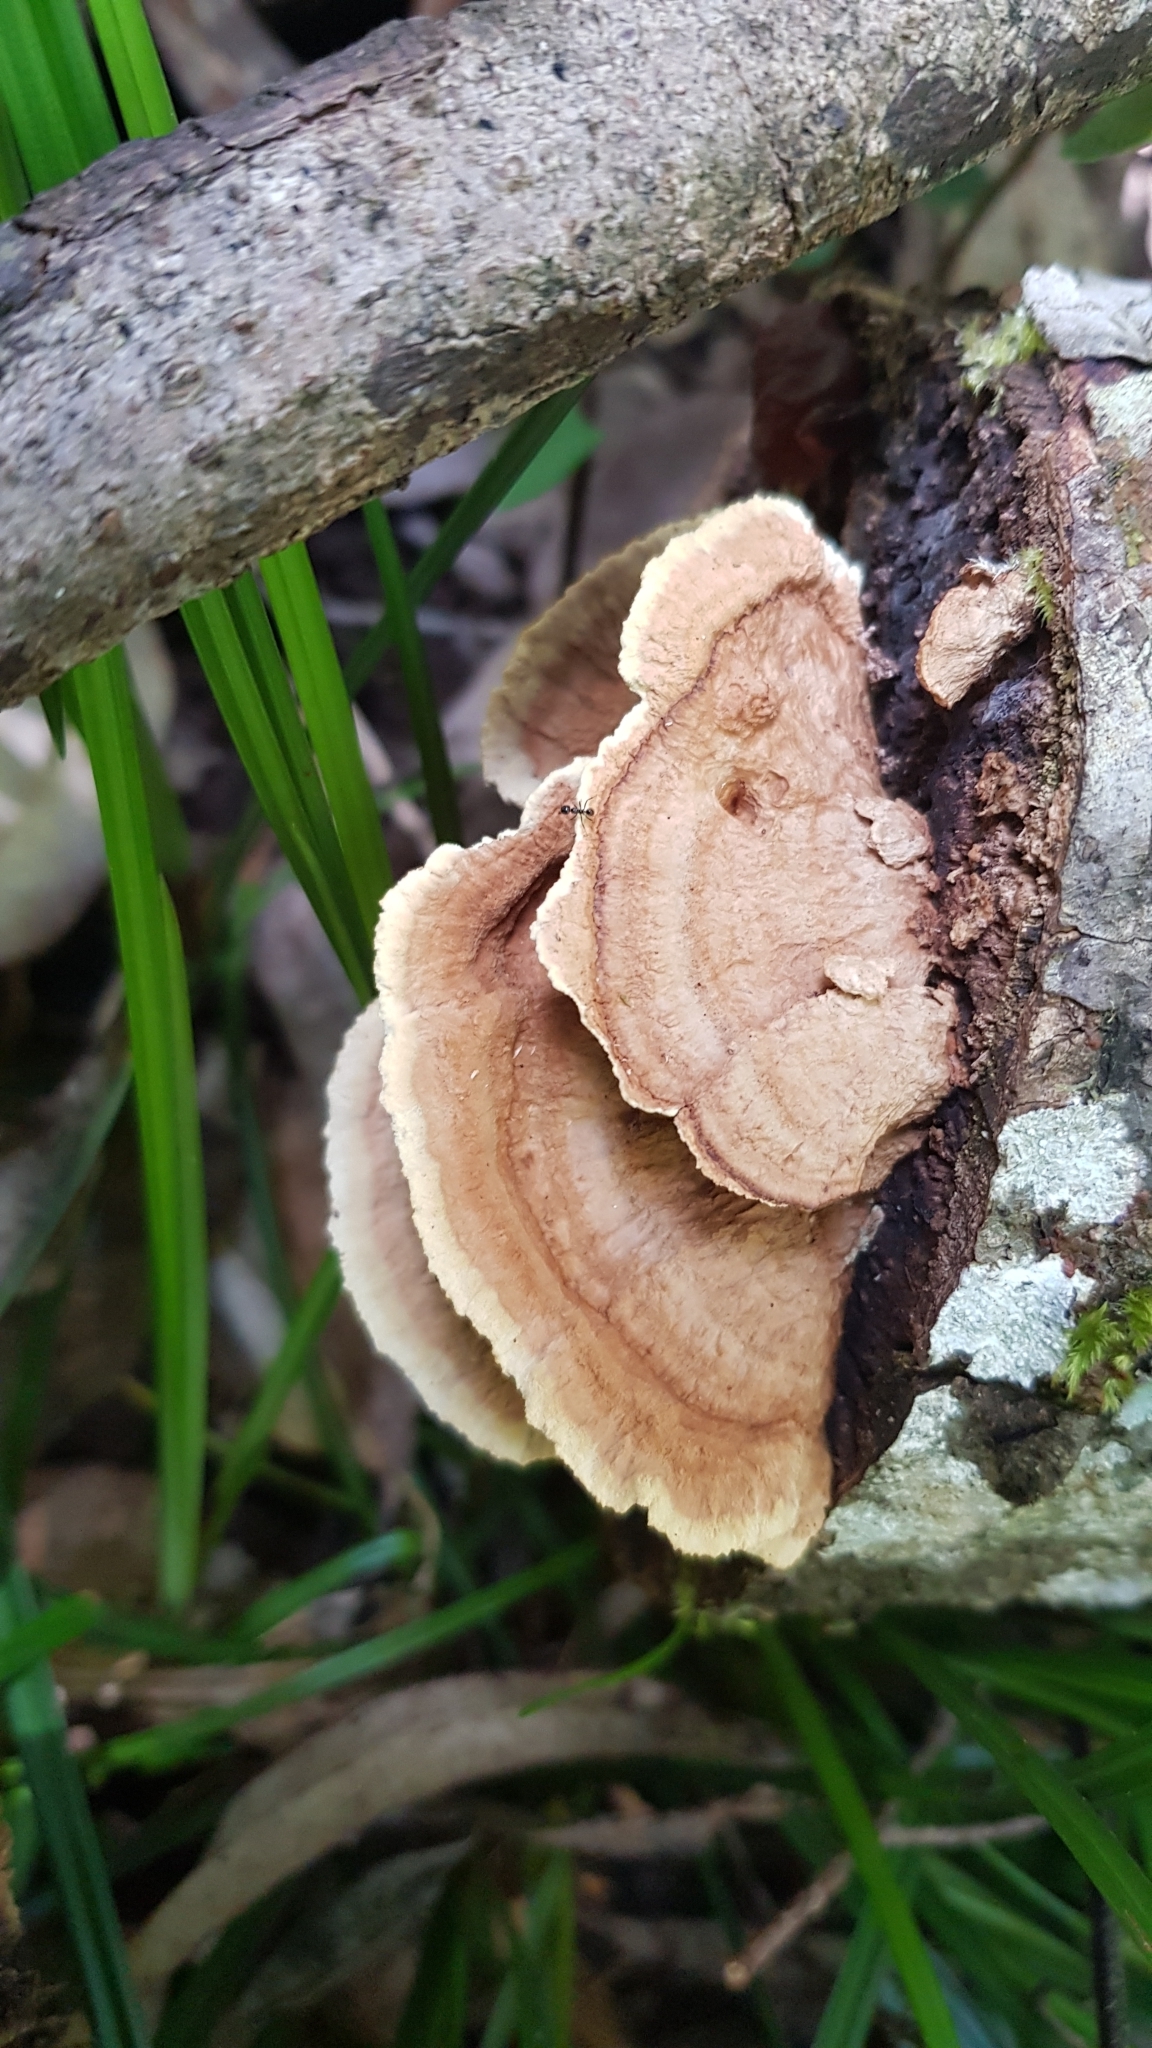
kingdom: Fungi
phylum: Basidiomycota
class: Agaricomycetes
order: Polyporales
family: Phanerochaetaceae
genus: Oxychaete
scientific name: Oxychaete cervinogilva
